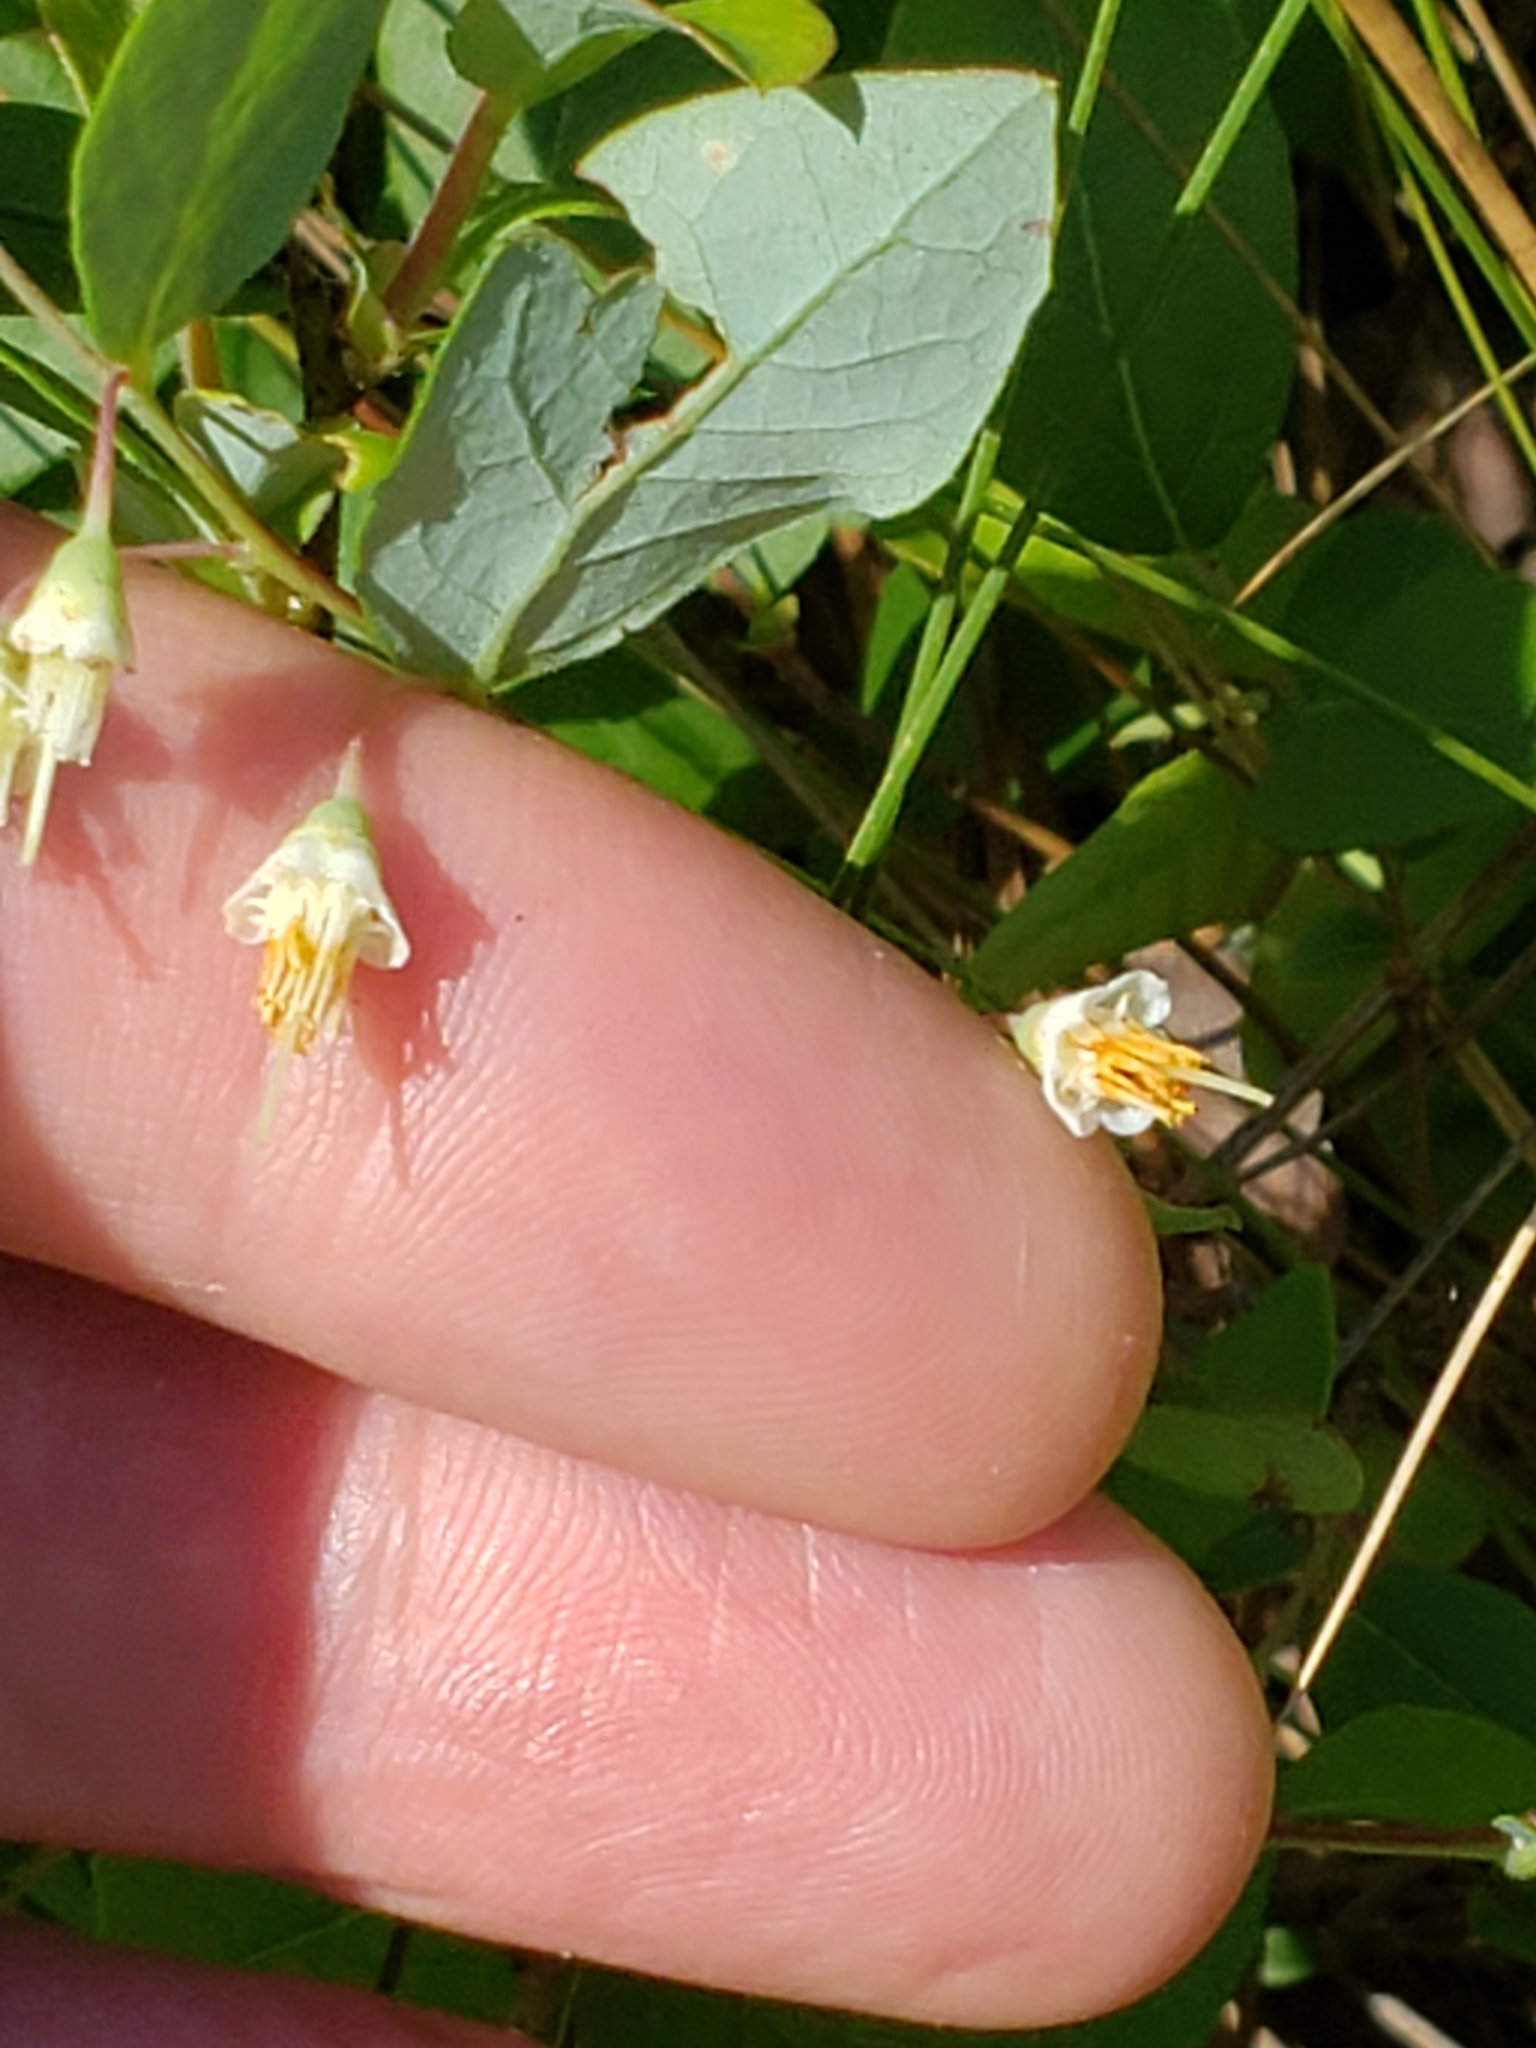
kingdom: Plantae
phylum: Tracheophyta
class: Magnoliopsida
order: Ericales
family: Ericaceae
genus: Vaccinium
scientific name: Vaccinium stamineum
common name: Deerberry
